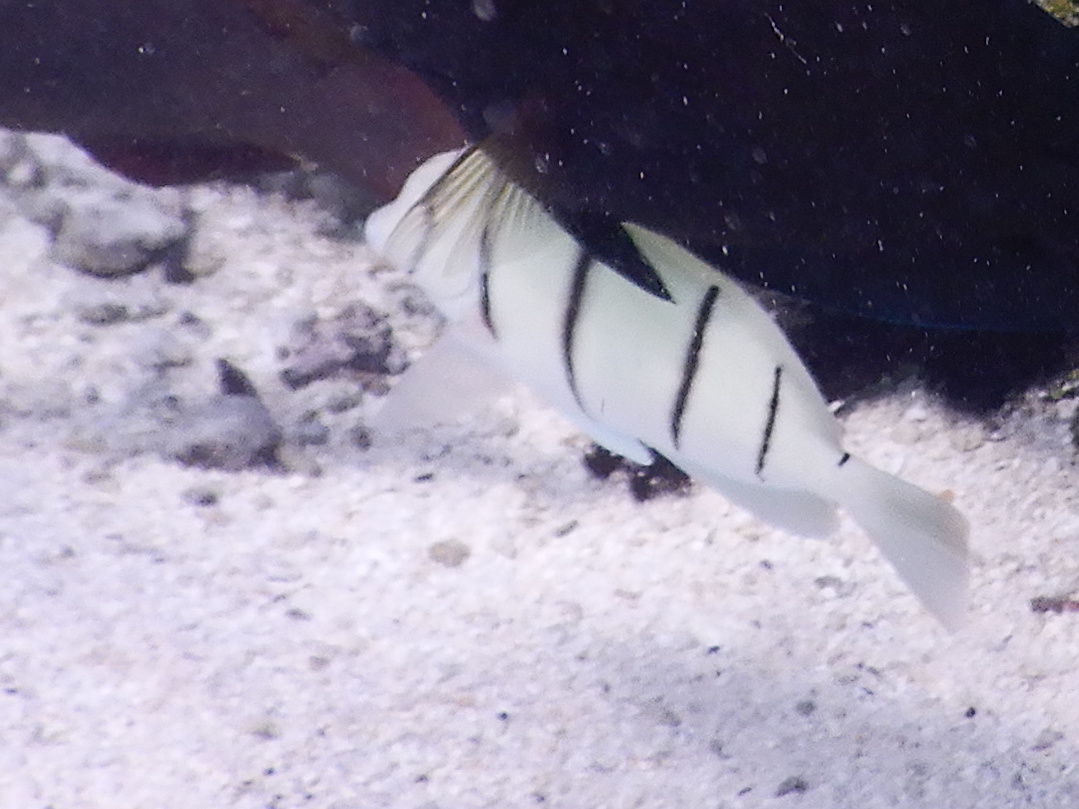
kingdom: Animalia
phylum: Chordata
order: Perciformes
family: Acanthuridae
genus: Acanthurus
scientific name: Acanthurus triostegus
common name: Convict surgeonfish
